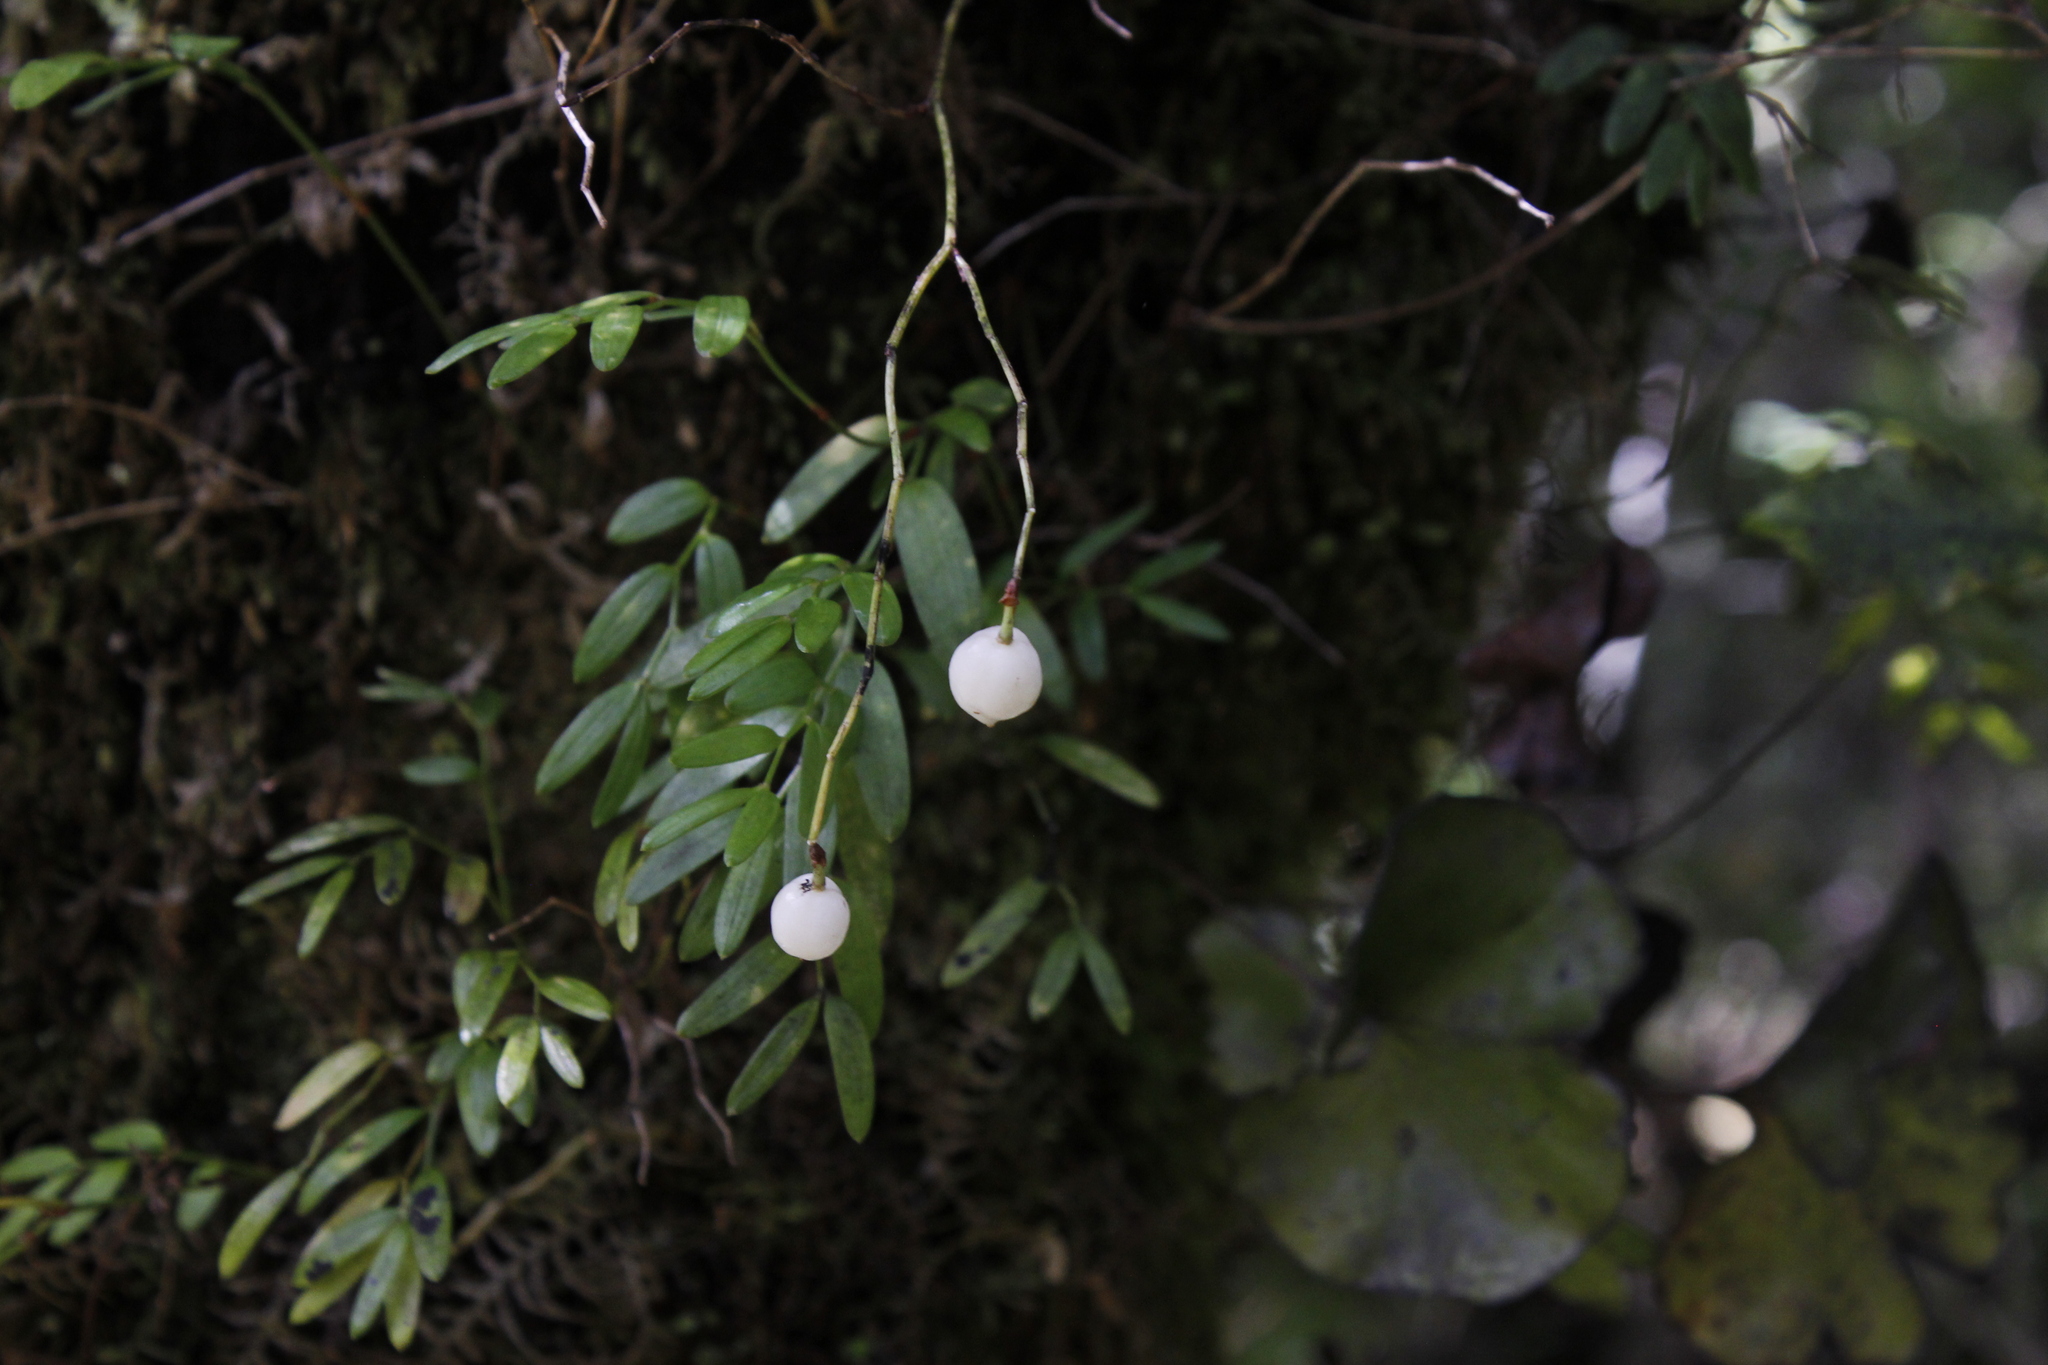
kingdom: Plantae
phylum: Tracheophyta
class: Liliopsida
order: Liliales
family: Alstroemeriaceae
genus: Luzuriaga
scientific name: Luzuriaga parviflora
